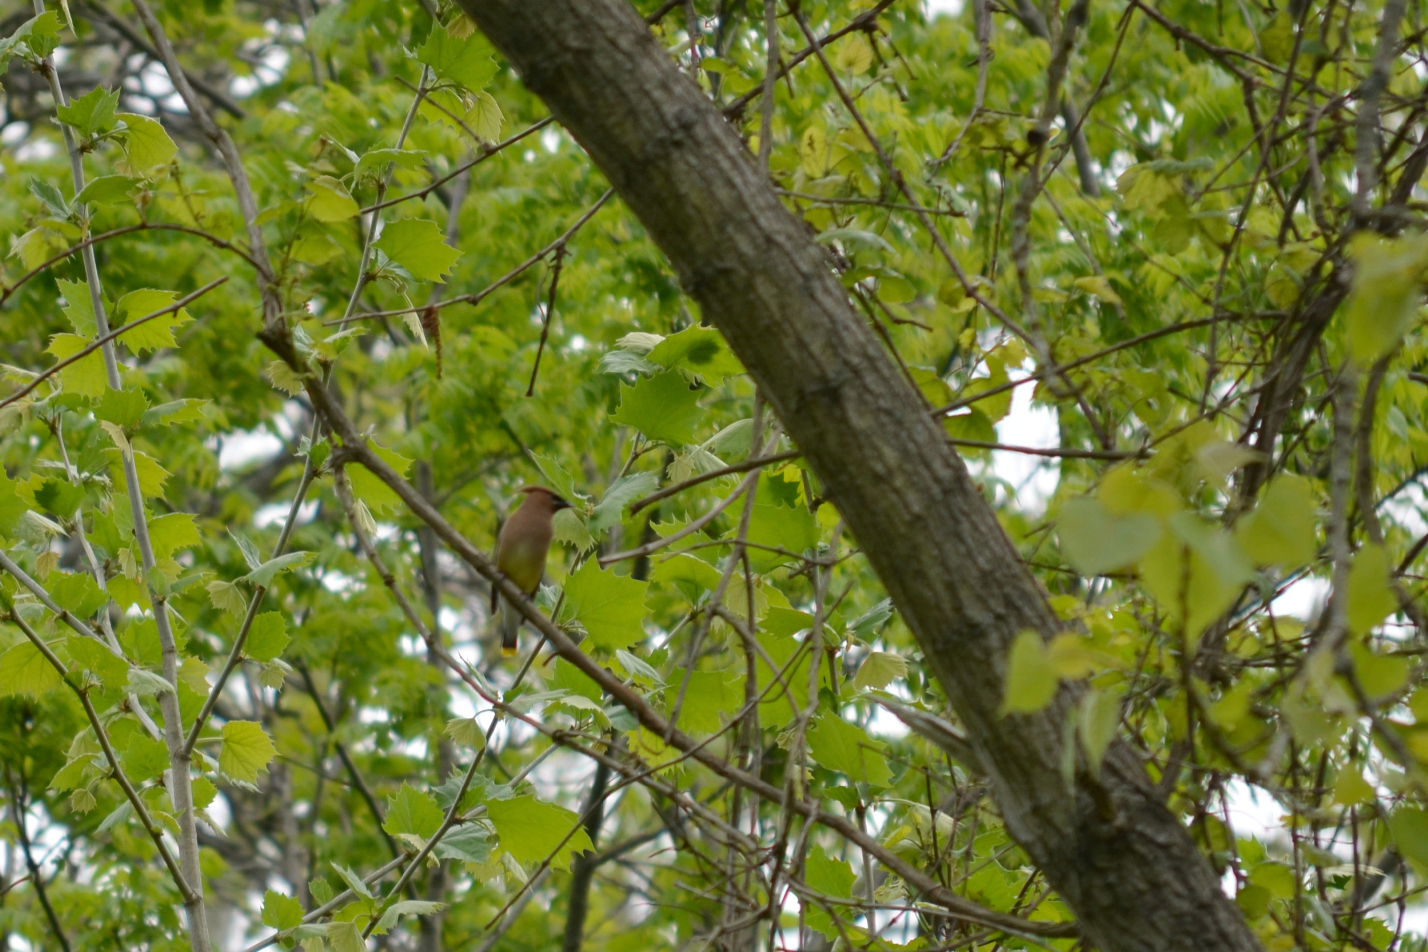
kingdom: Animalia
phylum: Chordata
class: Aves
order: Passeriformes
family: Bombycillidae
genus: Bombycilla
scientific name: Bombycilla cedrorum
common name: Cedar waxwing
